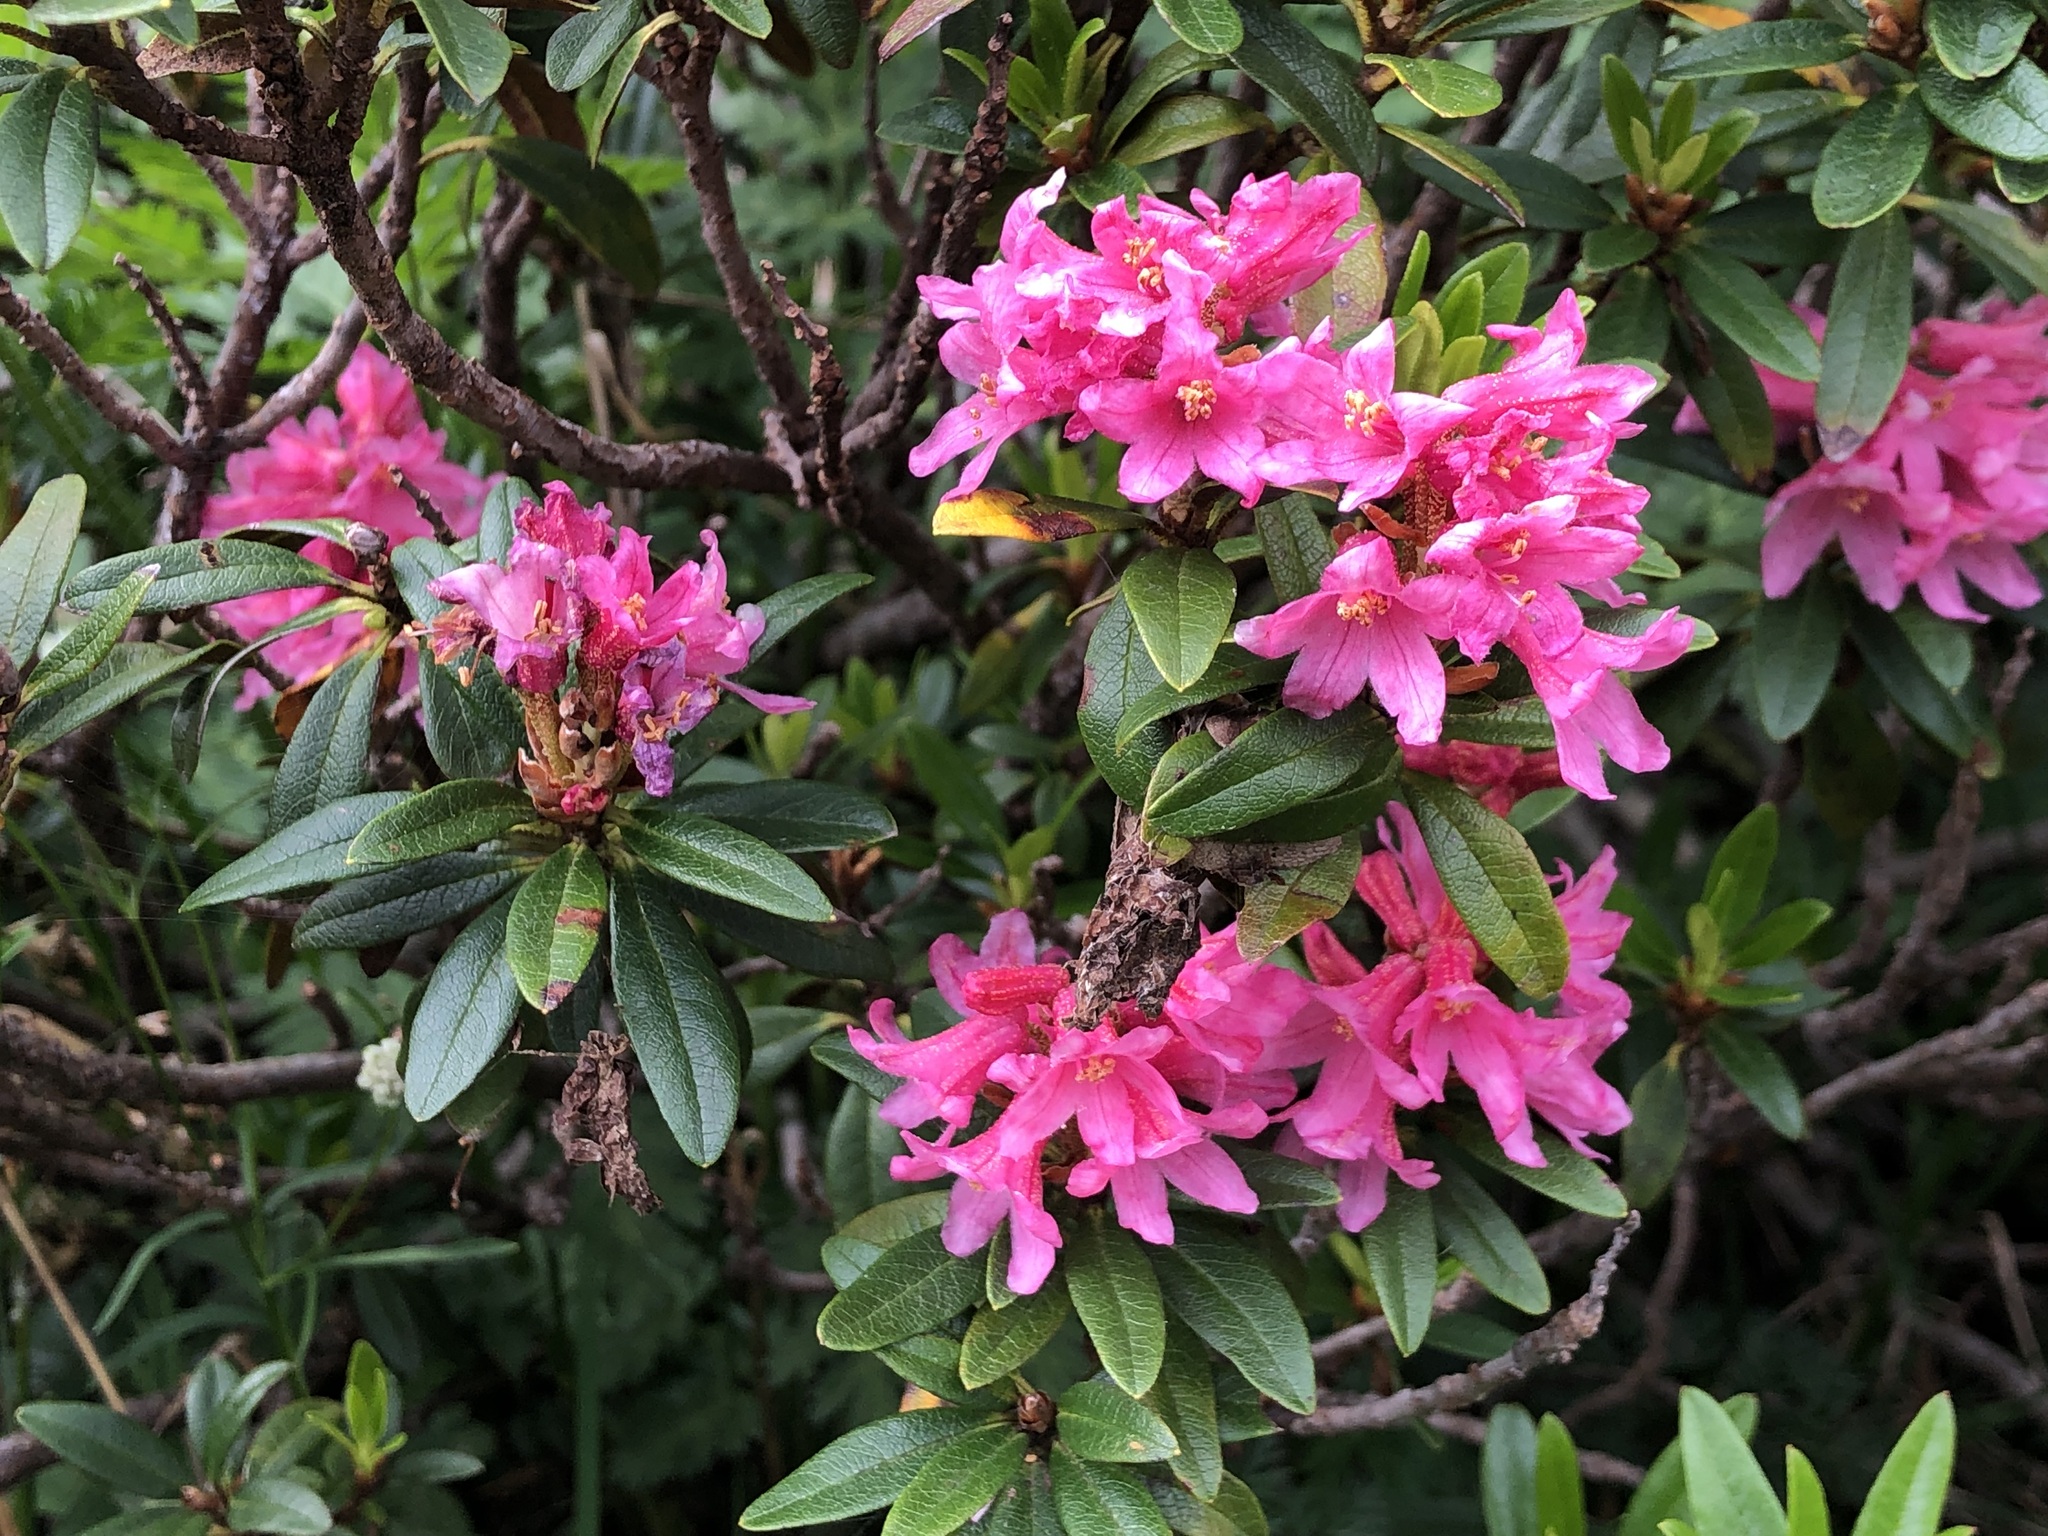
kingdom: Plantae
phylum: Tracheophyta
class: Magnoliopsida
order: Ericales
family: Ericaceae
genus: Rhododendron
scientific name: Rhododendron ferrugineum
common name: Alpenrose
